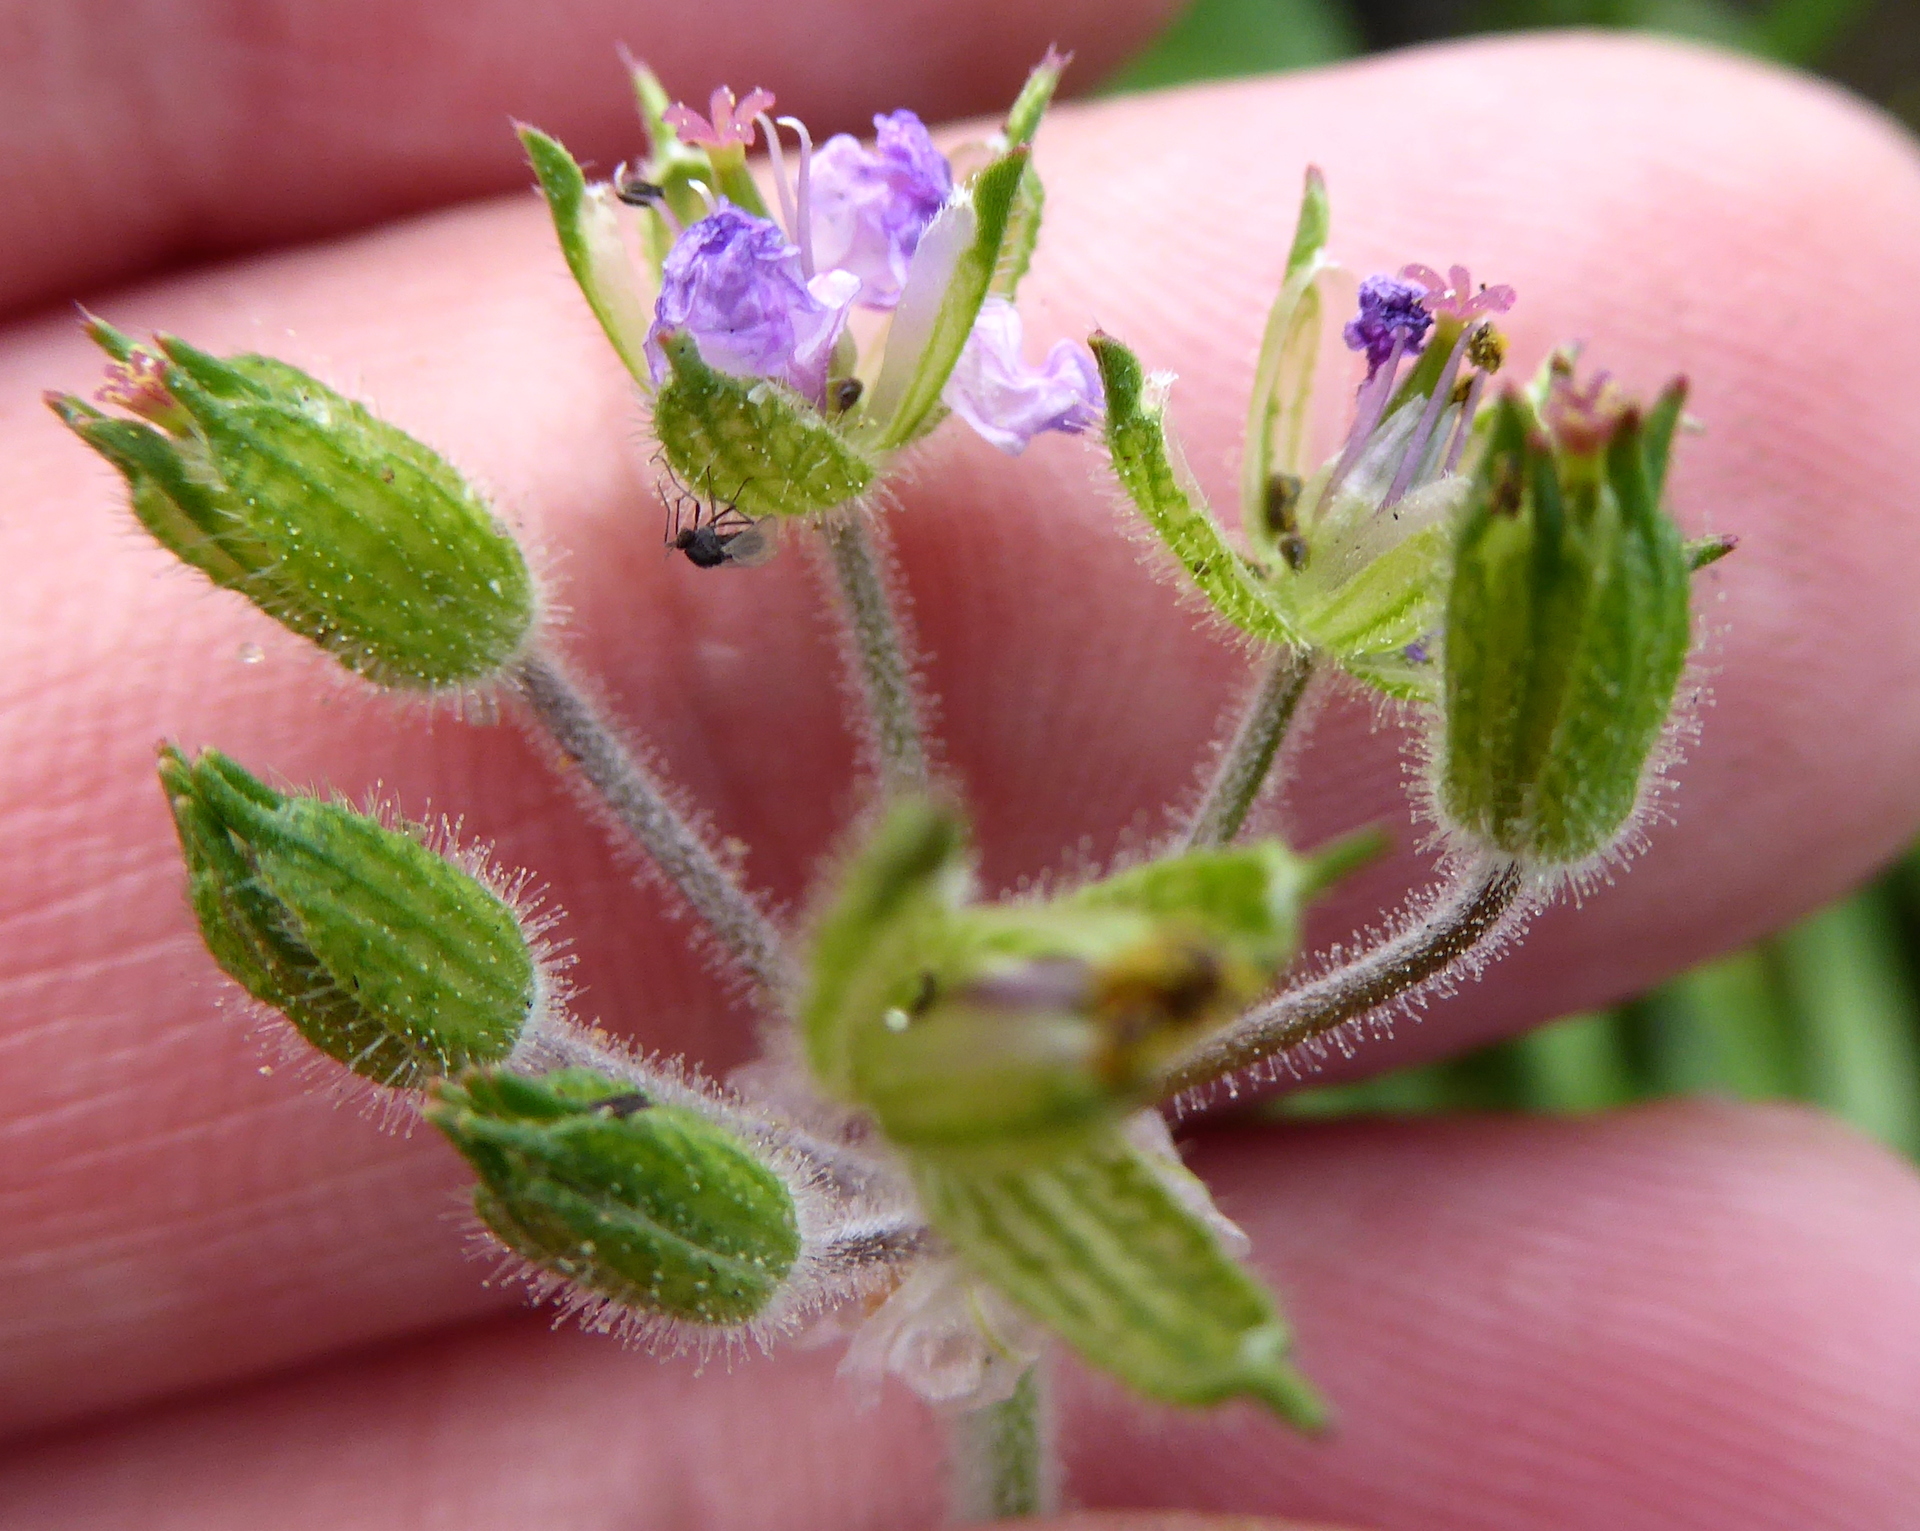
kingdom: Plantae
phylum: Tracheophyta
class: Magnoliopsida
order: Geraniales
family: Geraniaceae
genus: Erodium
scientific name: Erodium moschatum
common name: Musk stork's-bill
